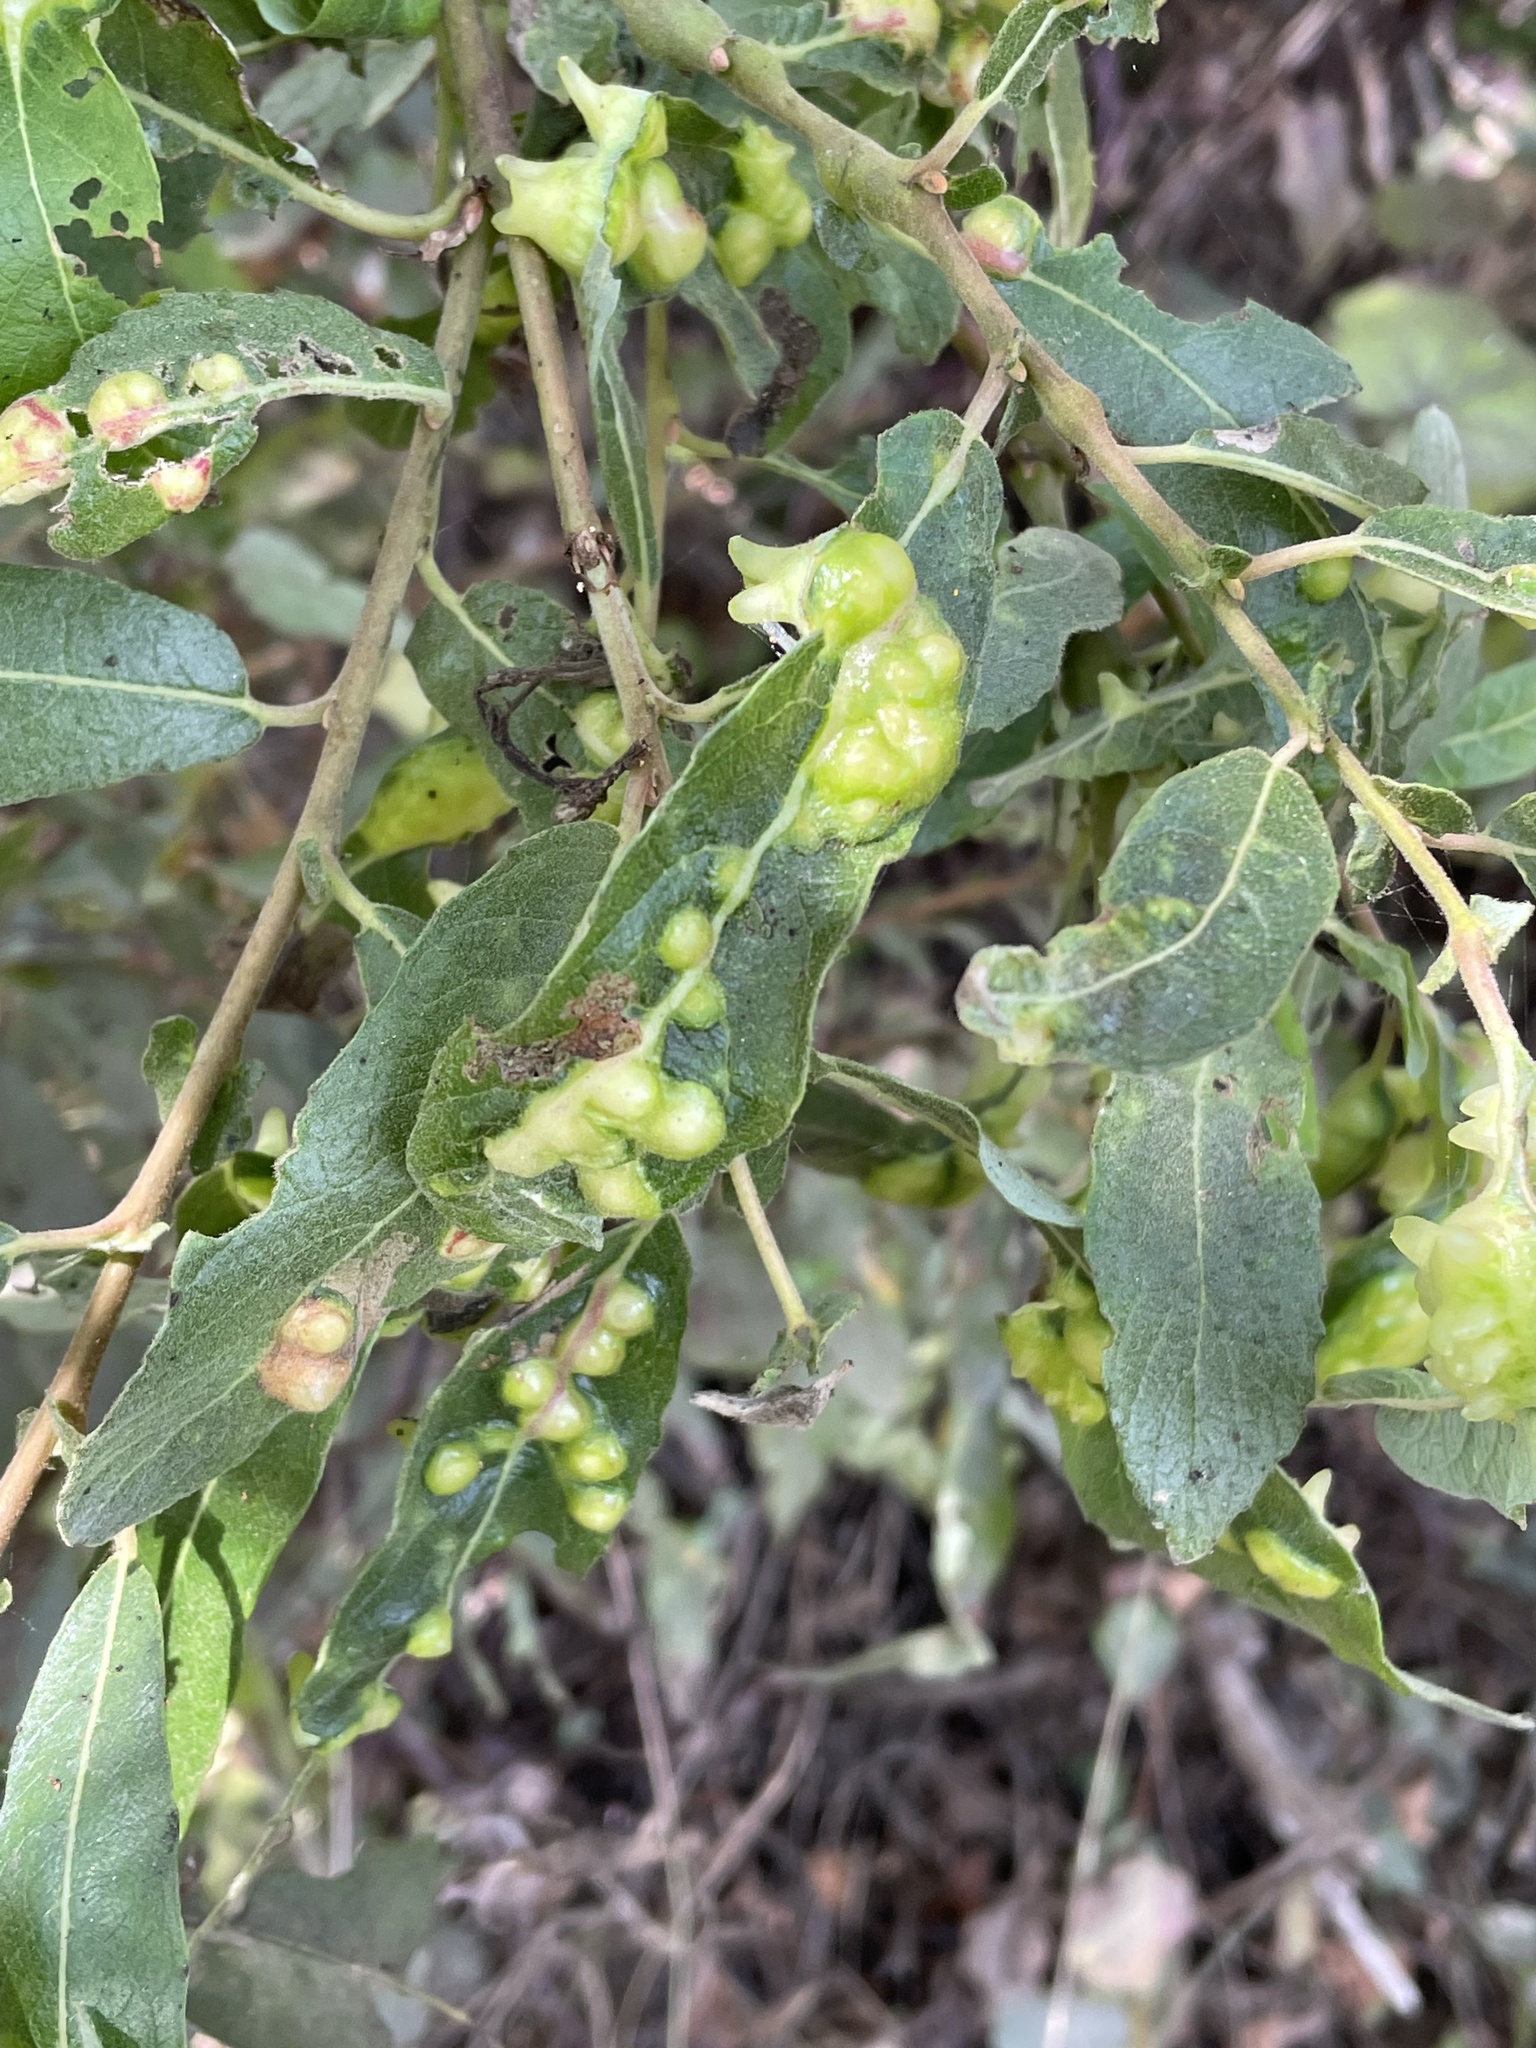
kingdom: Animalia
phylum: Arthropoda
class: Insecta
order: Diptera
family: Cecidomyiidae
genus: Iteomyia
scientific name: Iteomyia
